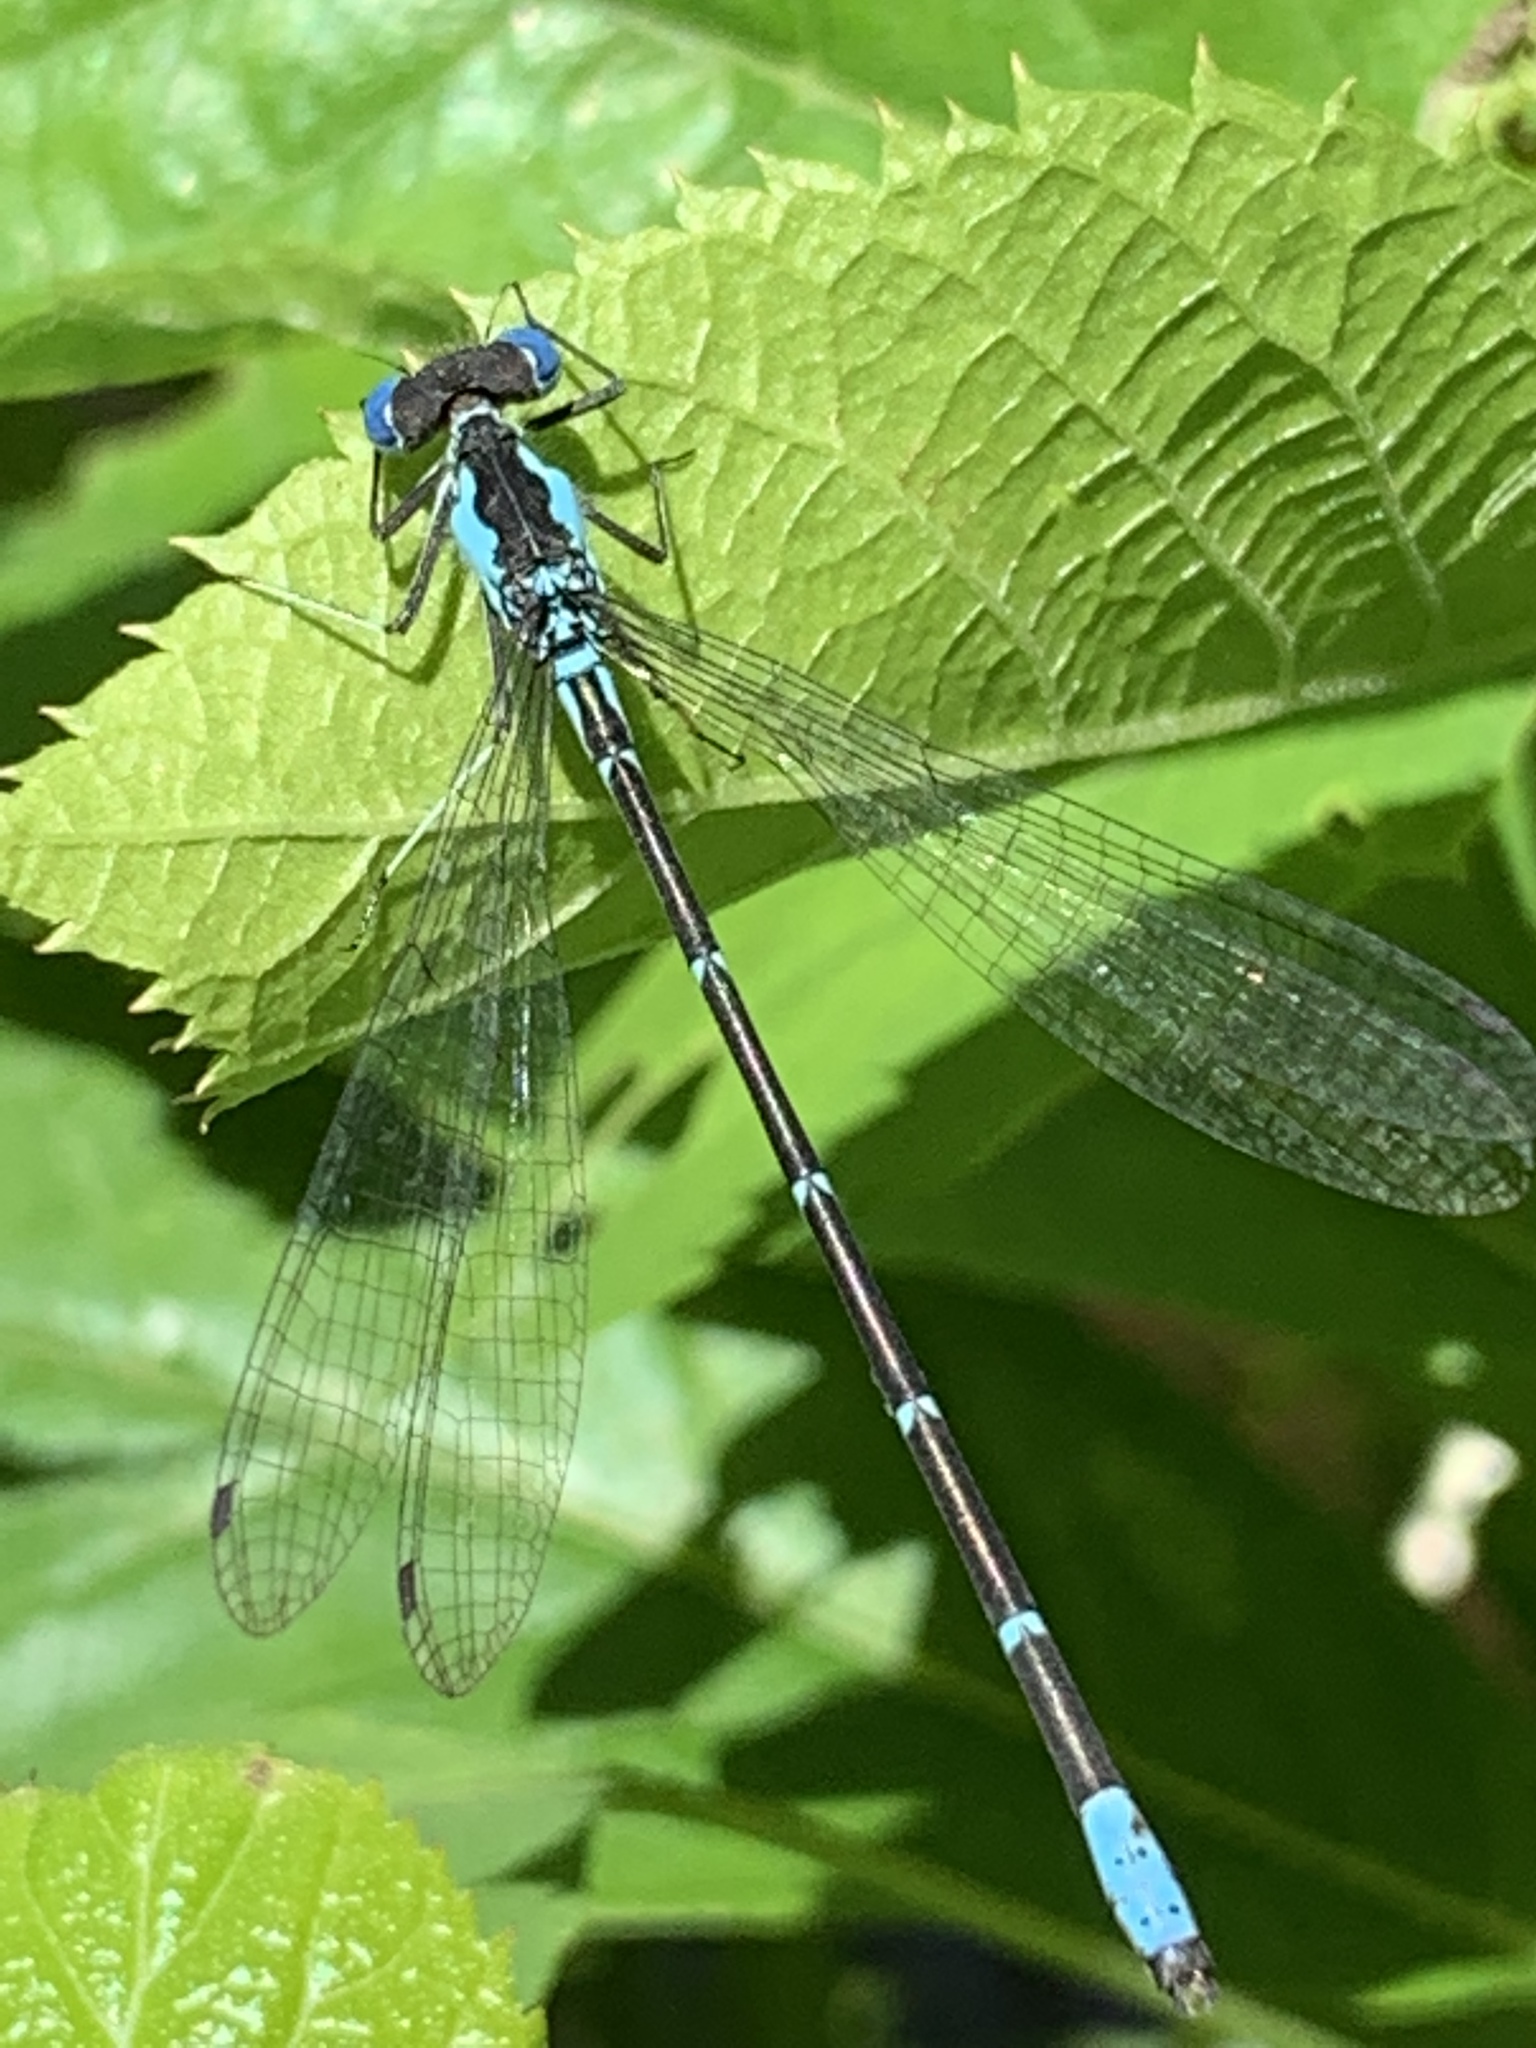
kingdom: Animalia
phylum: Arthropoda
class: Insecta
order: Odonata
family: Coenagrionidae
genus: Chromagrion
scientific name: Chromagrion conditum
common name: Aurora damsel
